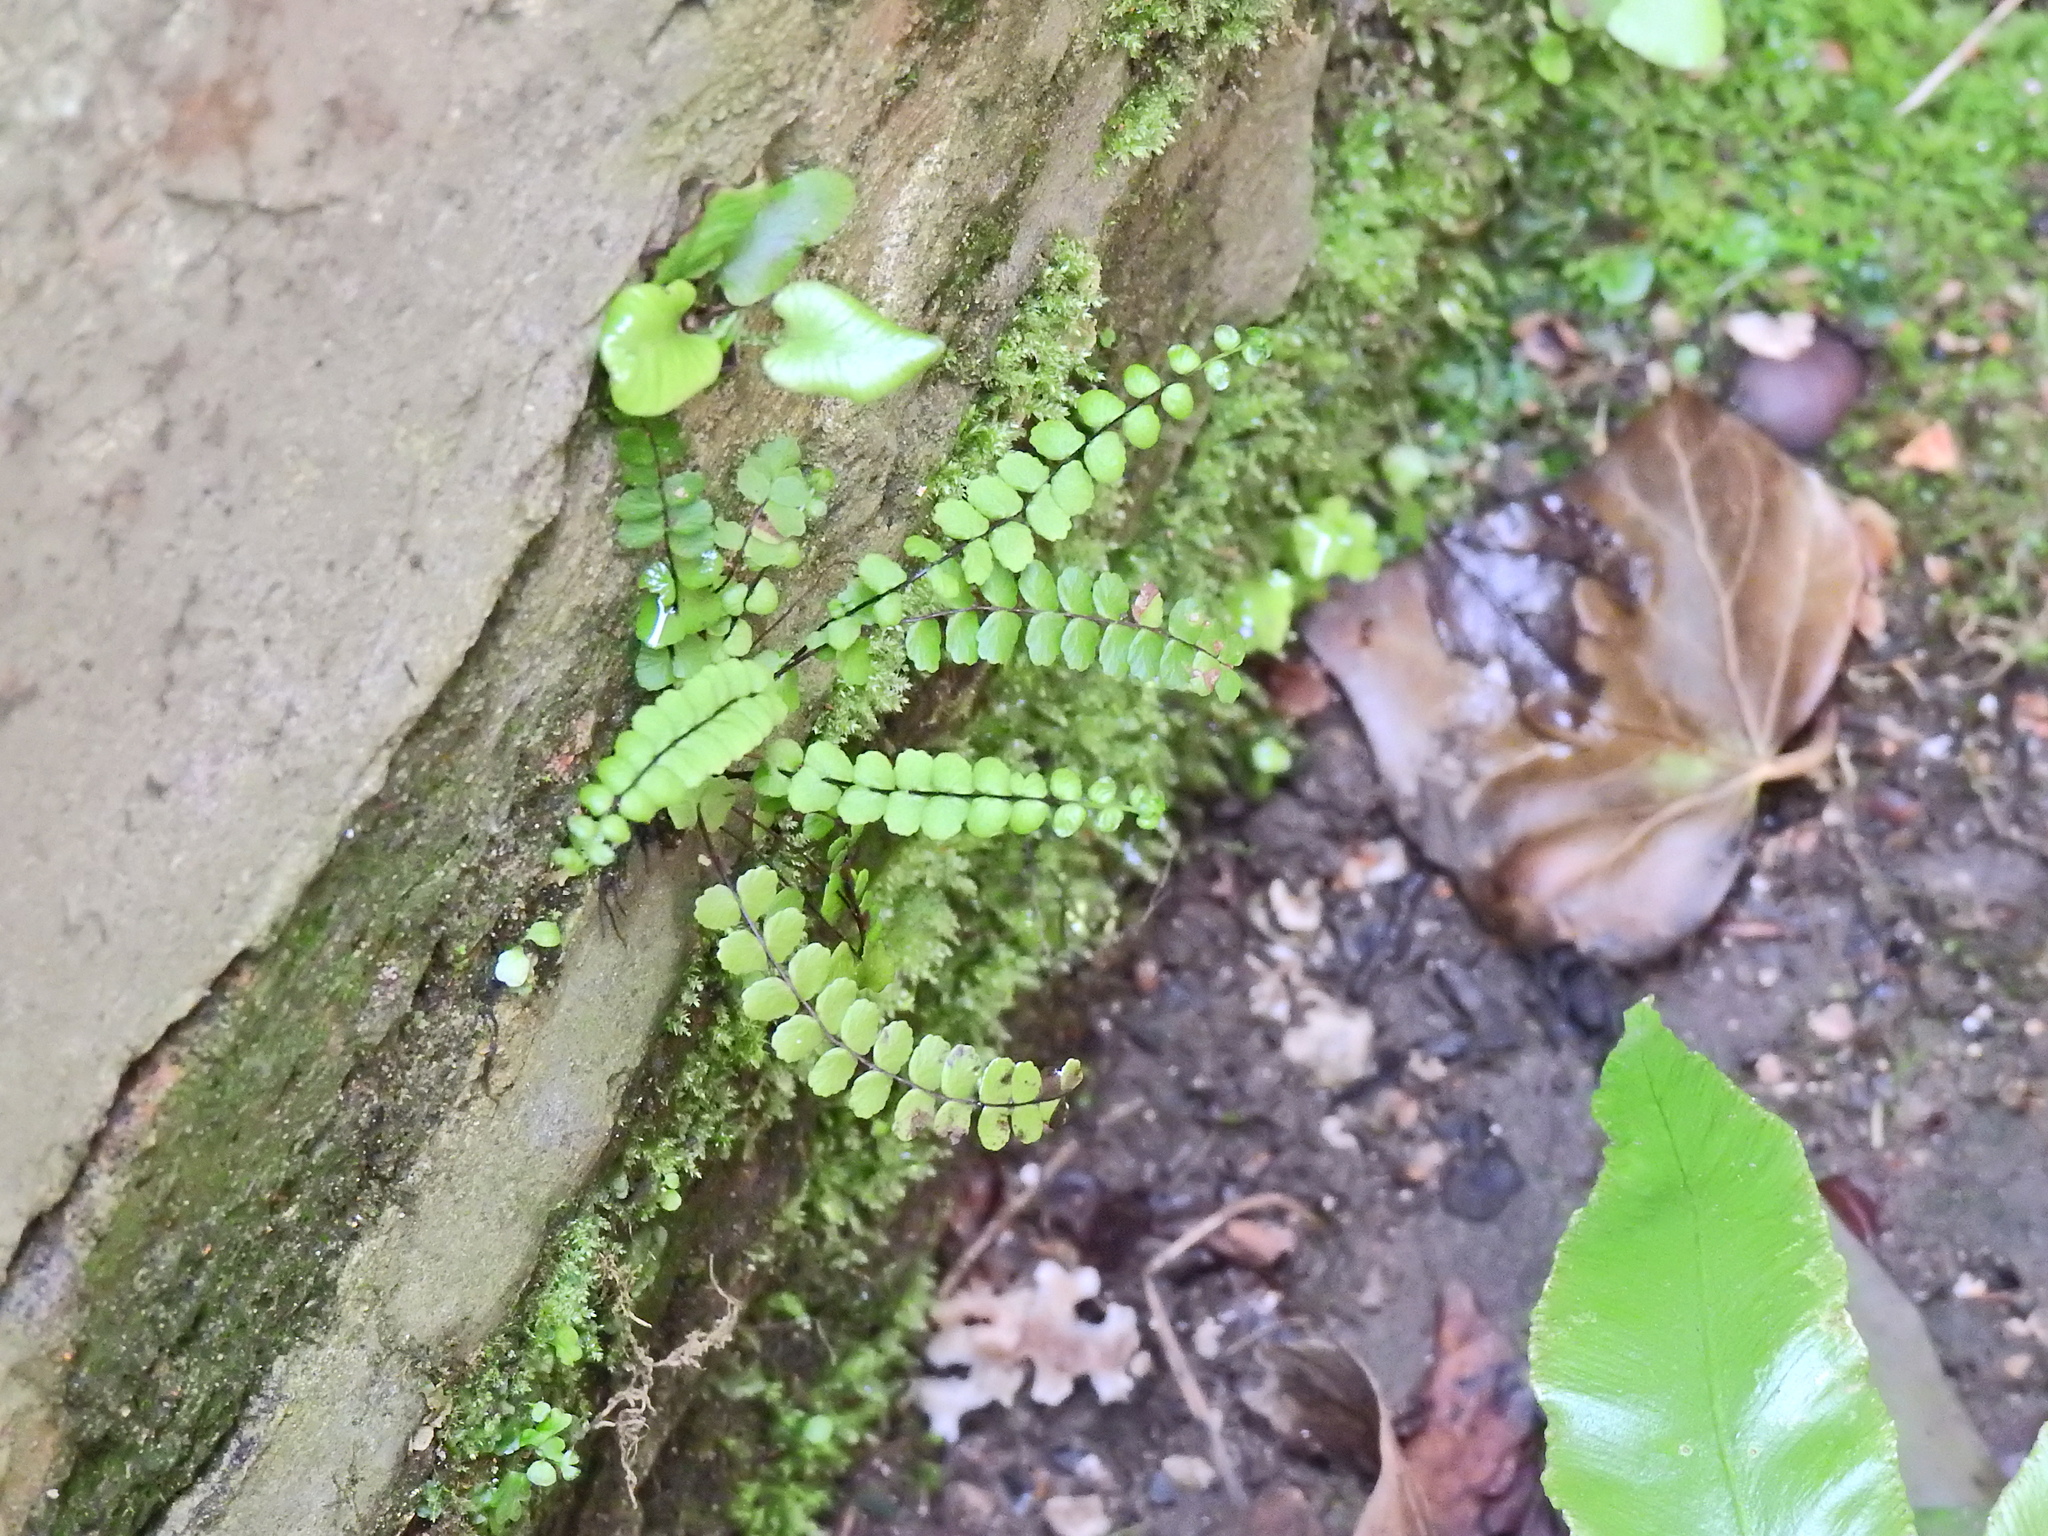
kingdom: Plantae
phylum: Tracheophyta
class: Polypodiopsida
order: Polypodiales
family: Aspleniaceae
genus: Asplenium
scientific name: Asplenium trichomanes
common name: Maidenhair spleenwort
